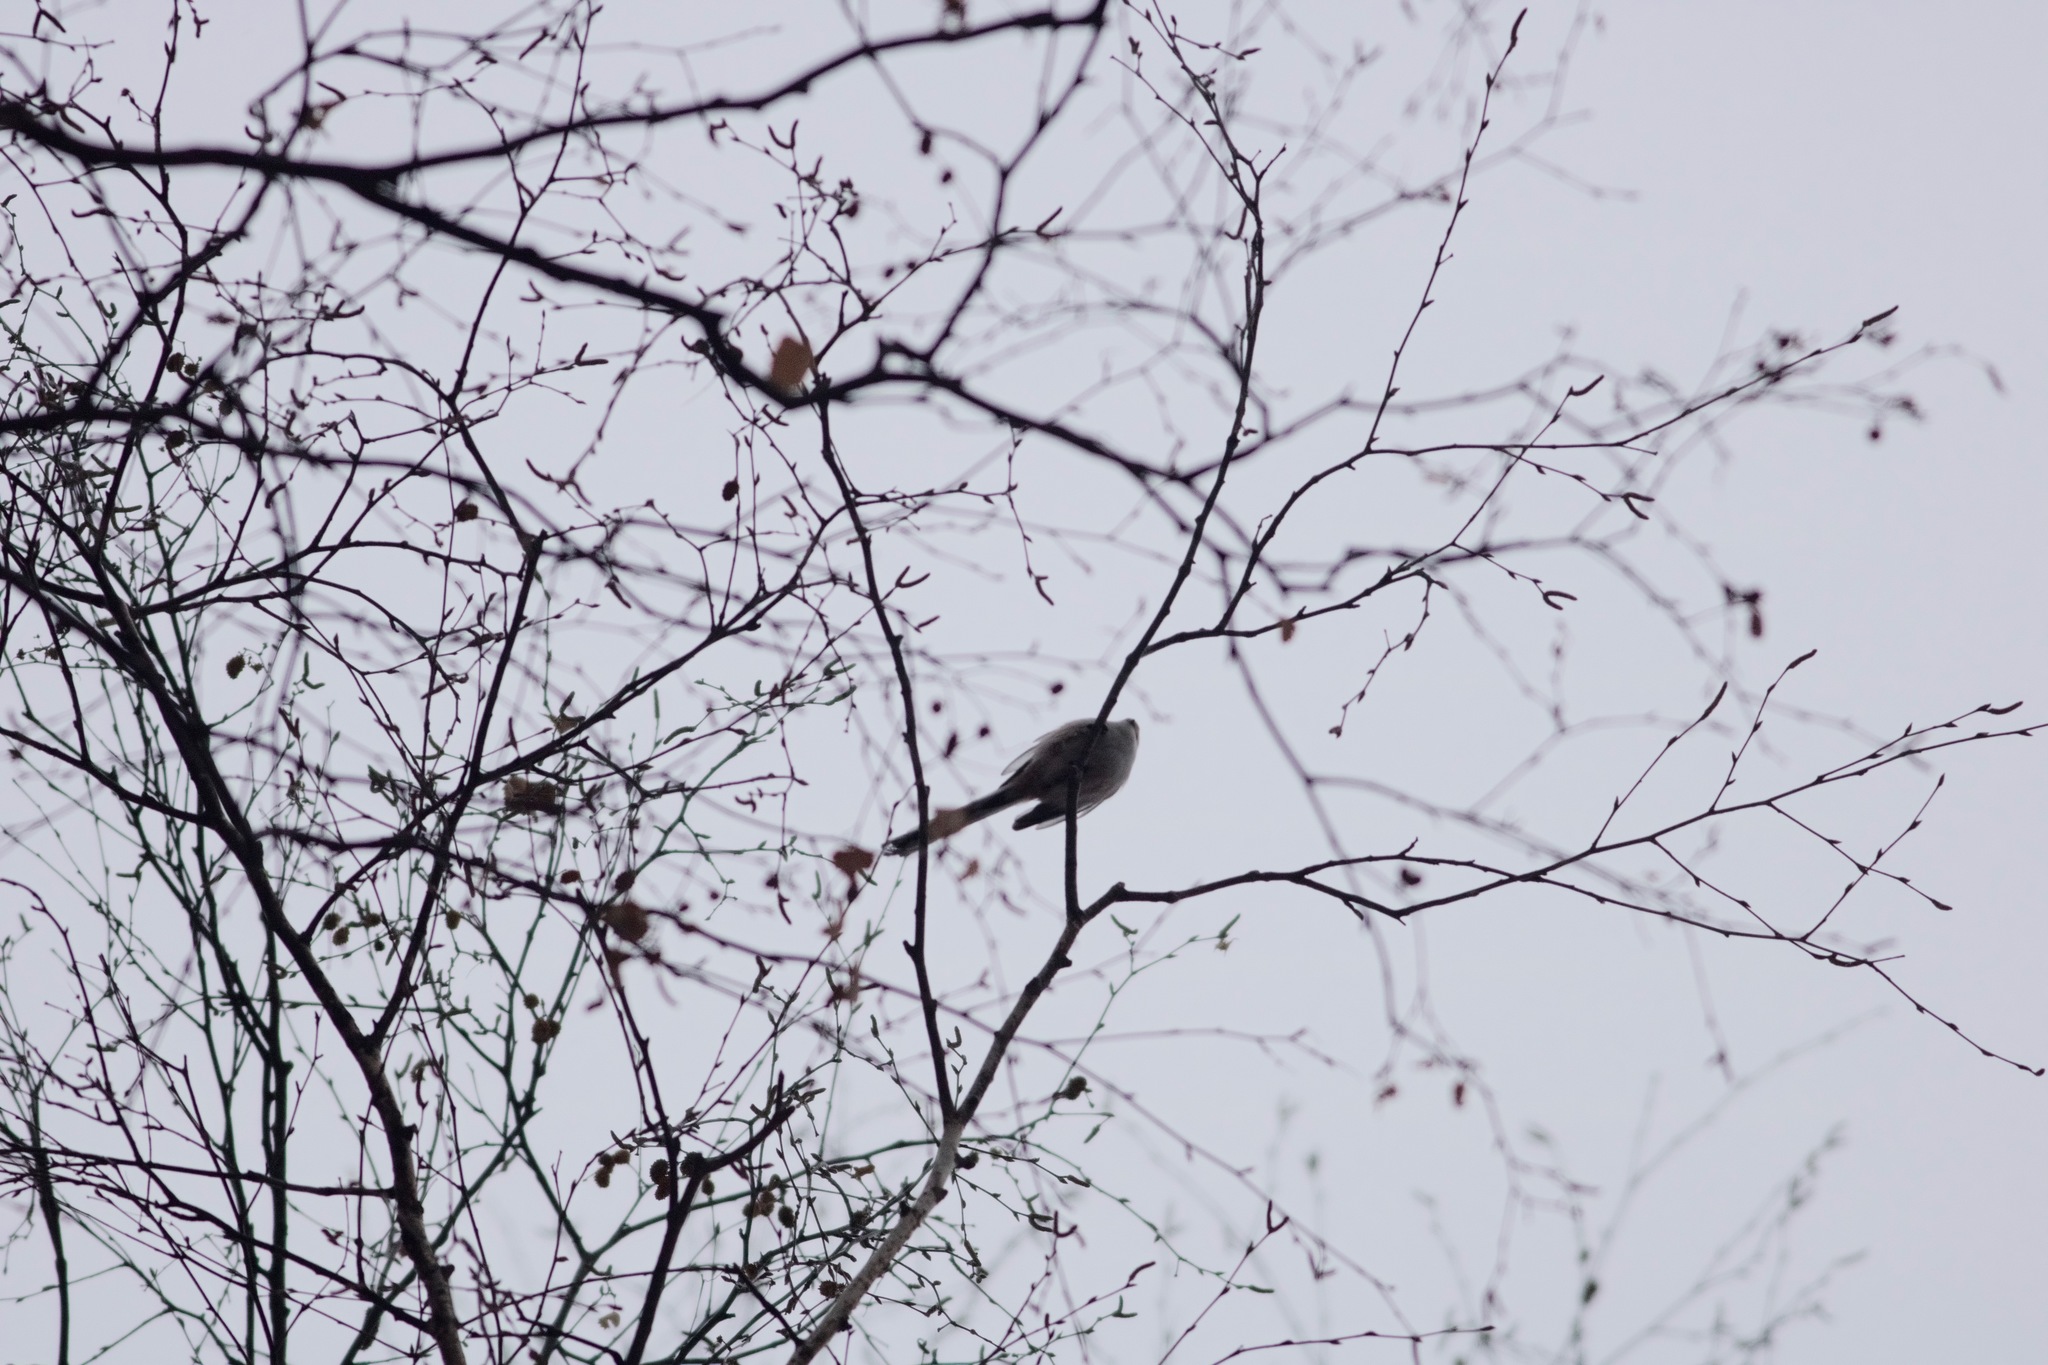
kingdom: Animalia
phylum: Chordata
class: Aves
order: Passeriformes
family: Aegithalidae
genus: Aegithalos
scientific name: Aegithalos caudatus
